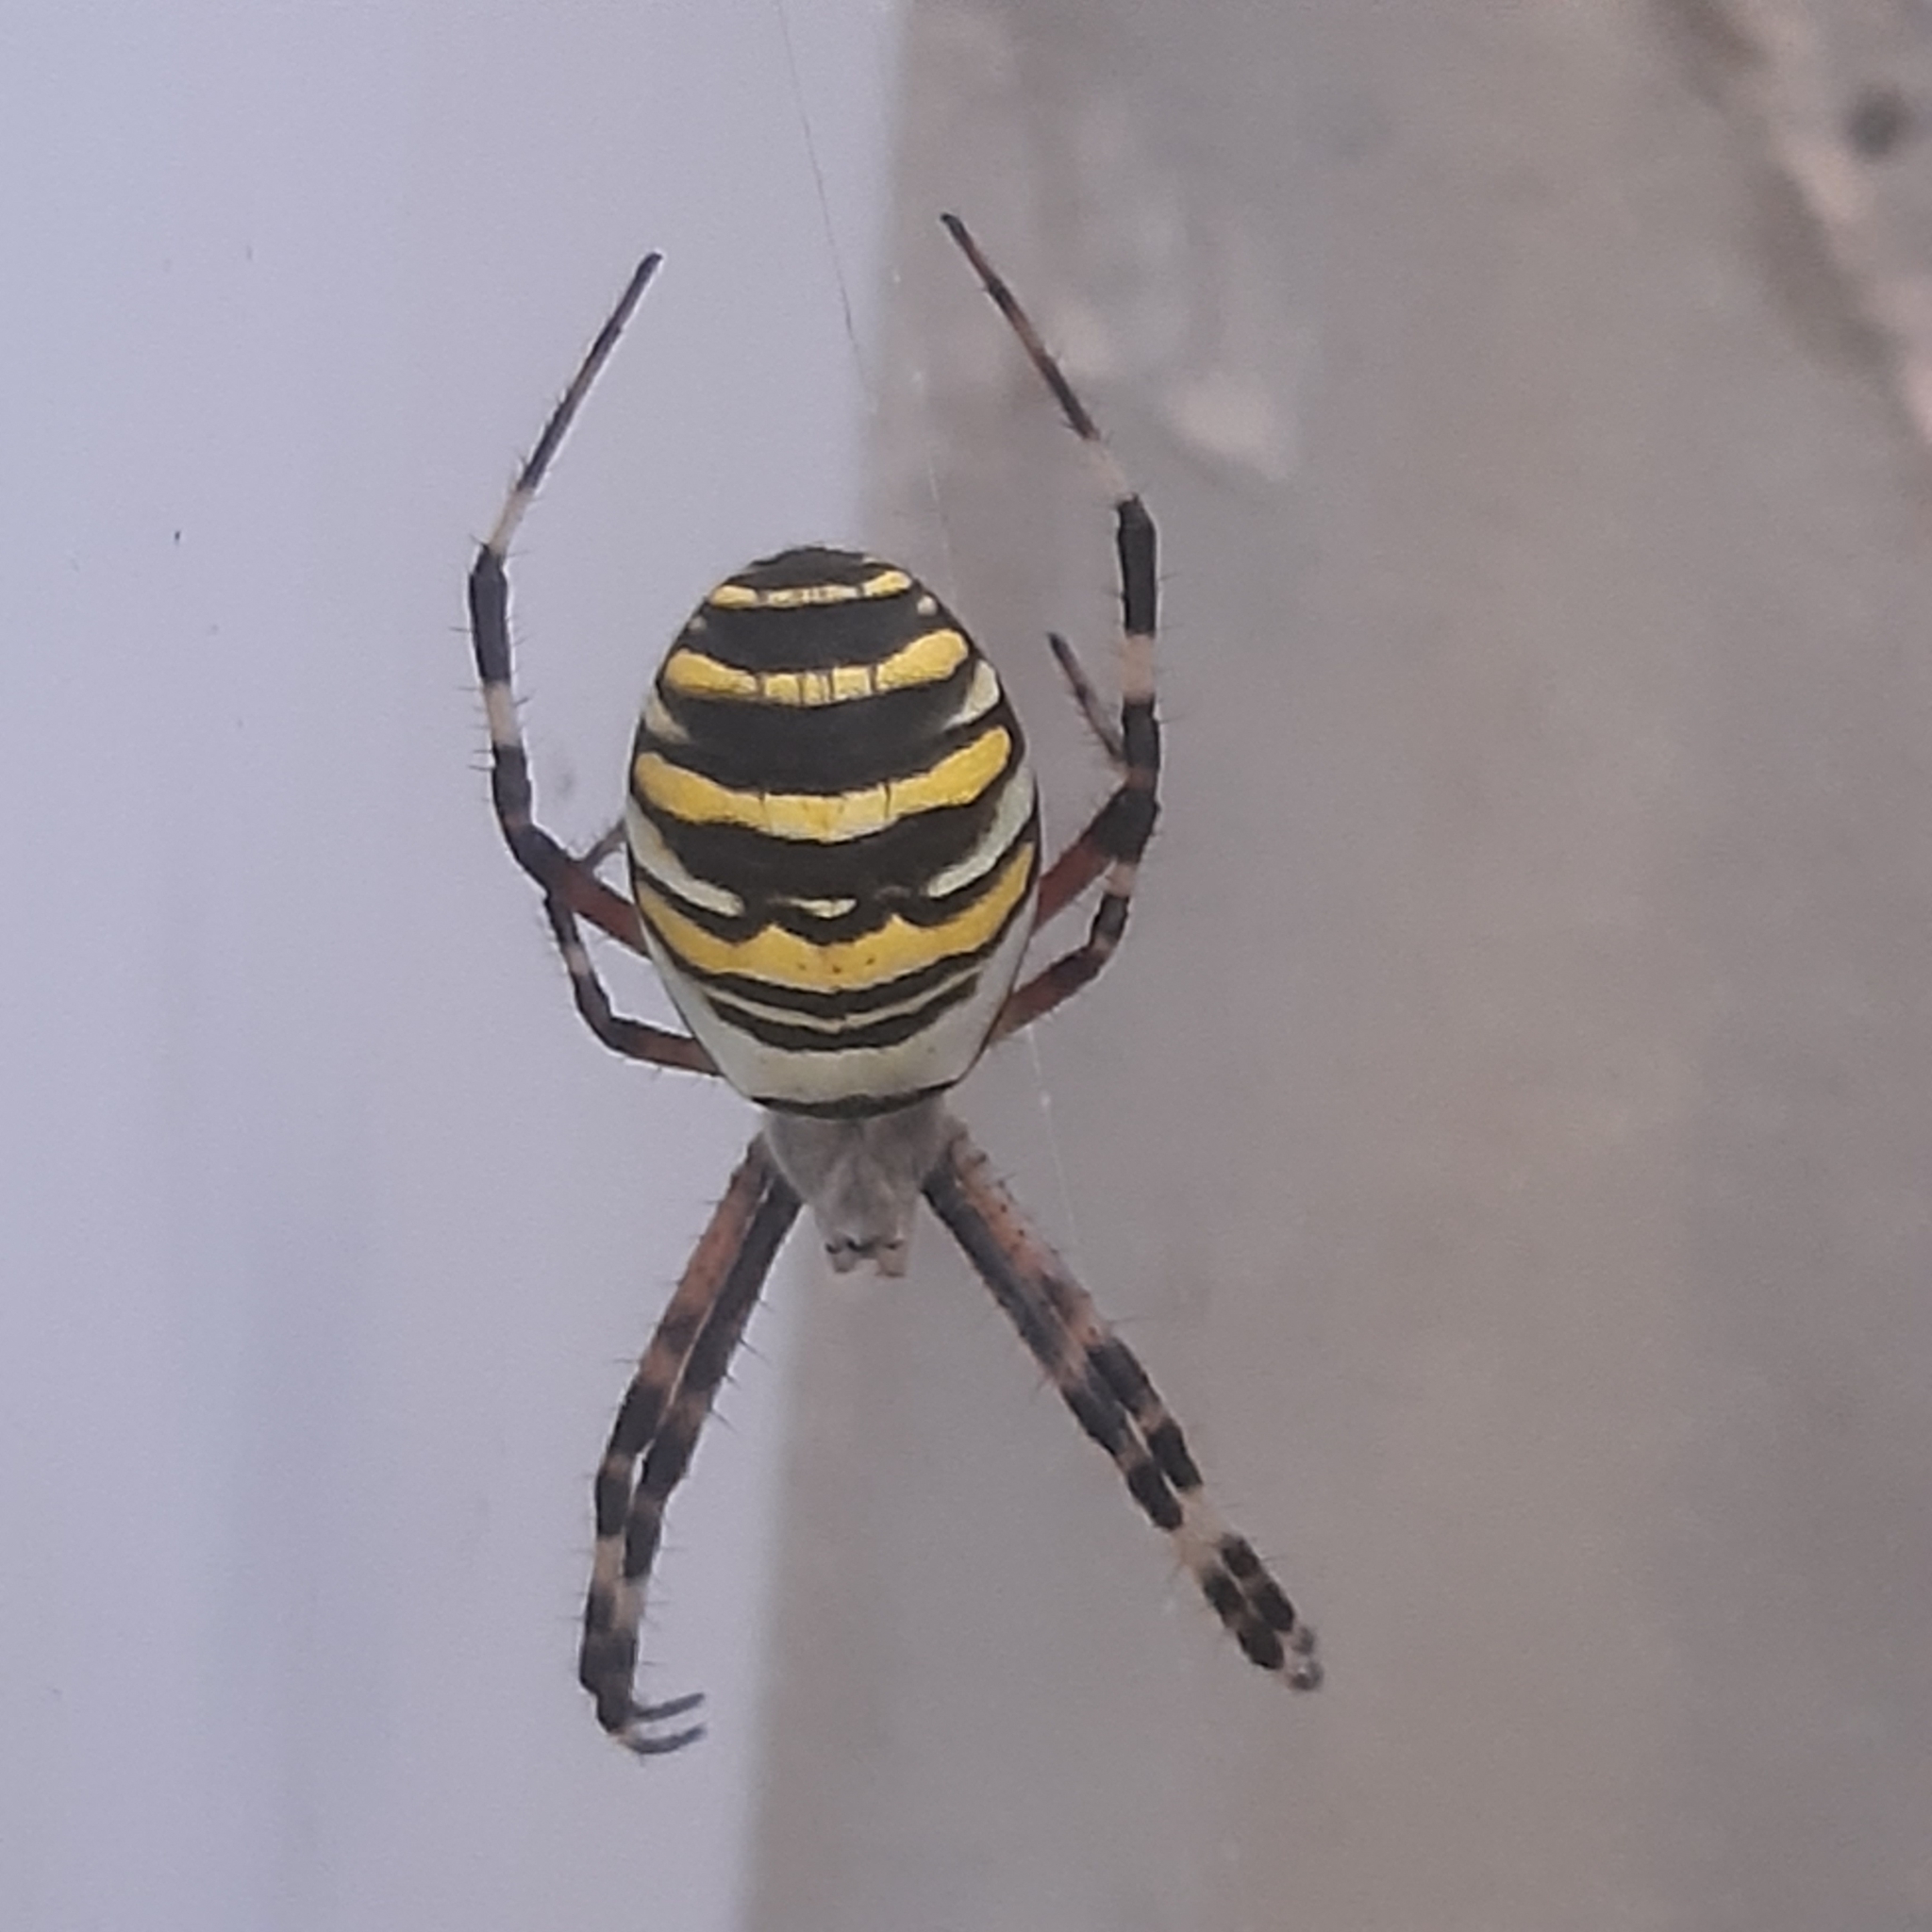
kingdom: Animalia
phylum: Arthropoda
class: Arachnida
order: Araneae
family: Araneidae
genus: Argiope
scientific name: Argiope bruennichi
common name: Wasp spider
